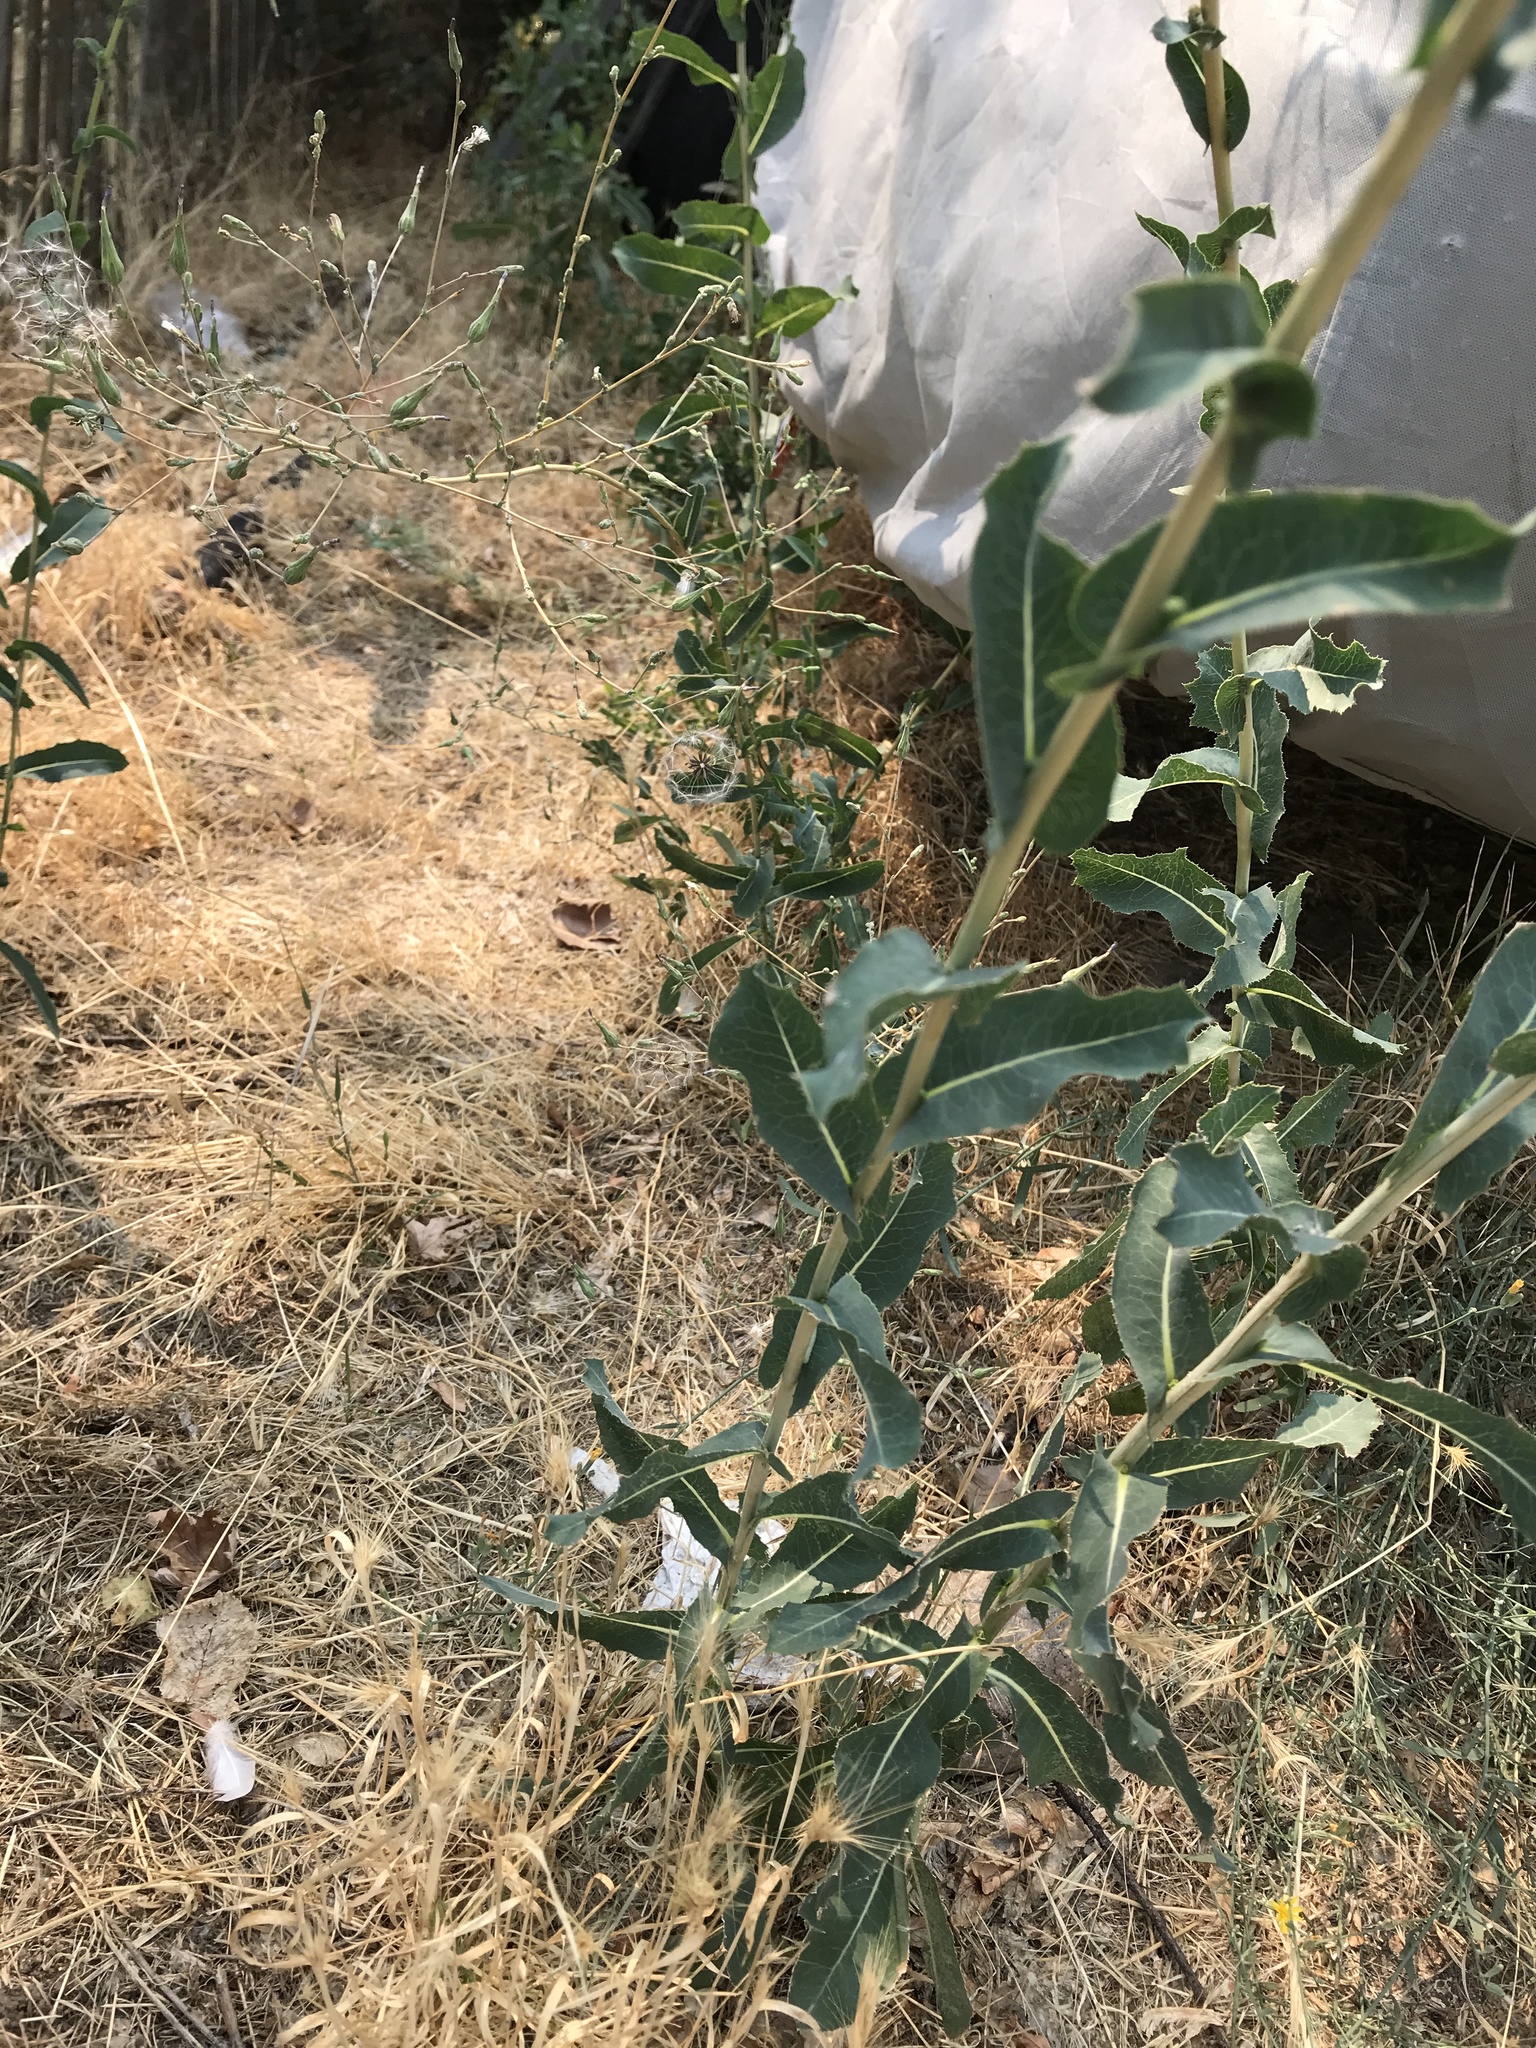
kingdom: Plantae
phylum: Tracheophyta
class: Magnoliopsida
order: Asterales
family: Asteraceae
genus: Lactuca
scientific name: Lactuca serriola
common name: Prickly lettuce
